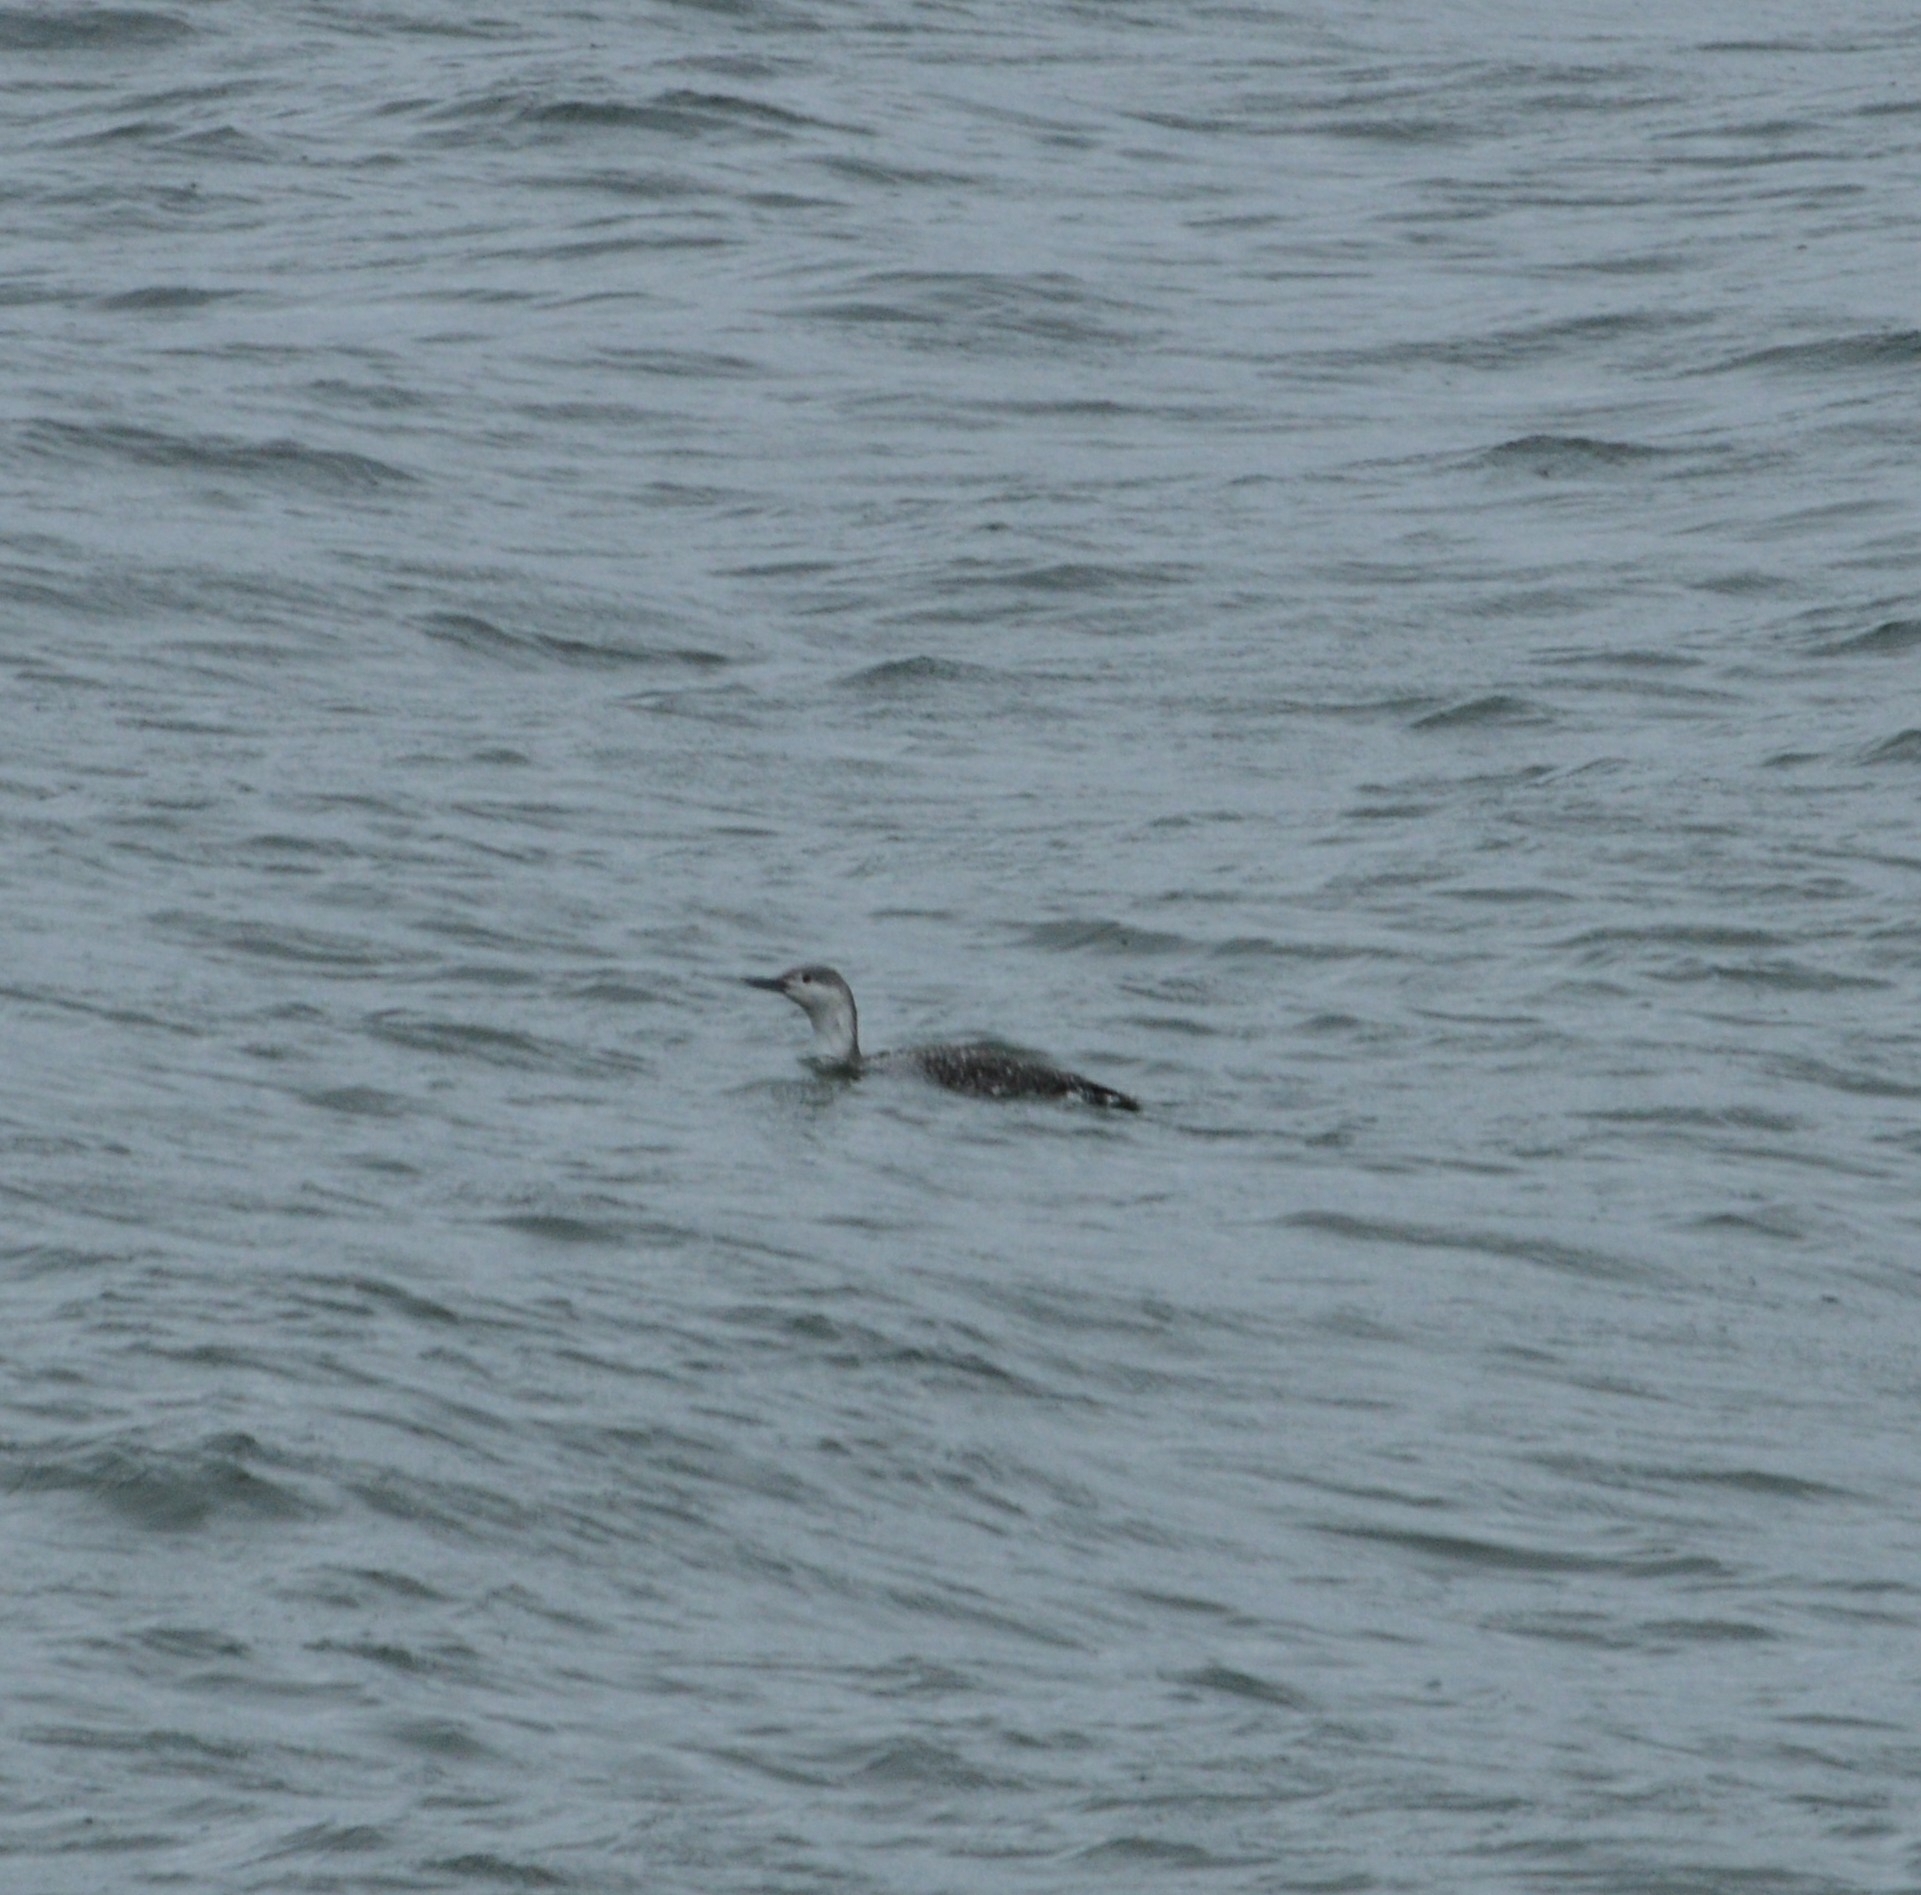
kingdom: Animalia
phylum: Chordata
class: Aves
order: Gaviiformes
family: Gaviidae
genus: Gavia
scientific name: Gavia stellata
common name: Red-throated loon
